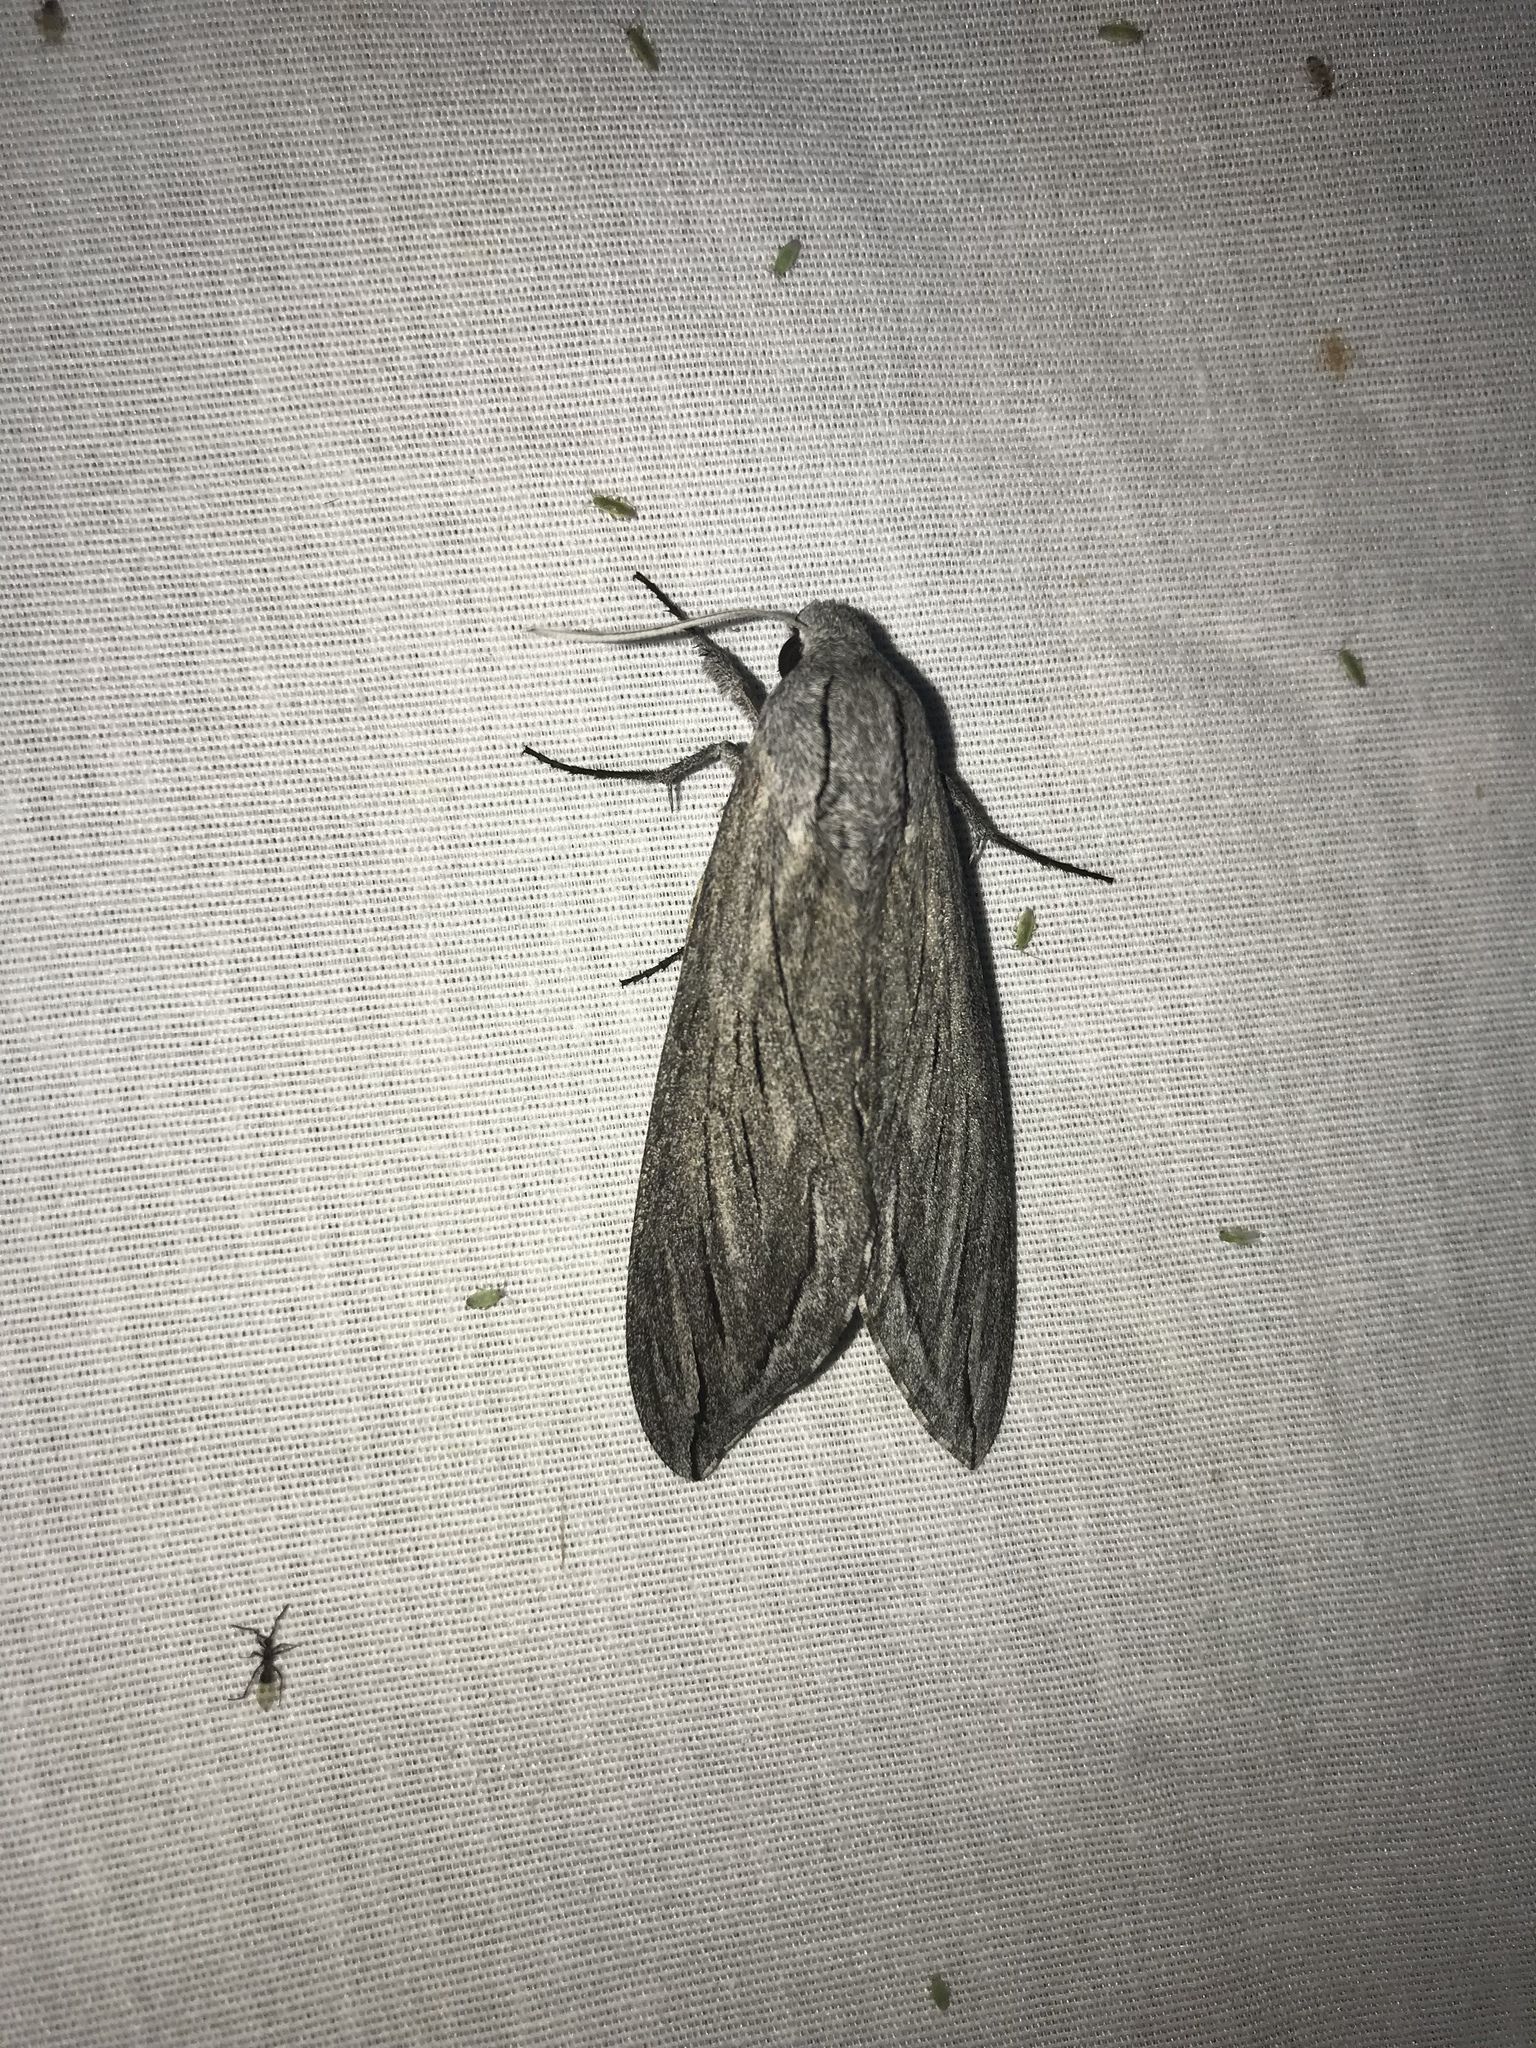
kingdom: Animalia
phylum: Arthropoda
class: Insecta
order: Lepidoptera
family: Sphingidae
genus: Sphinx
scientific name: Sphinx chersis
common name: Great ash sphinx
